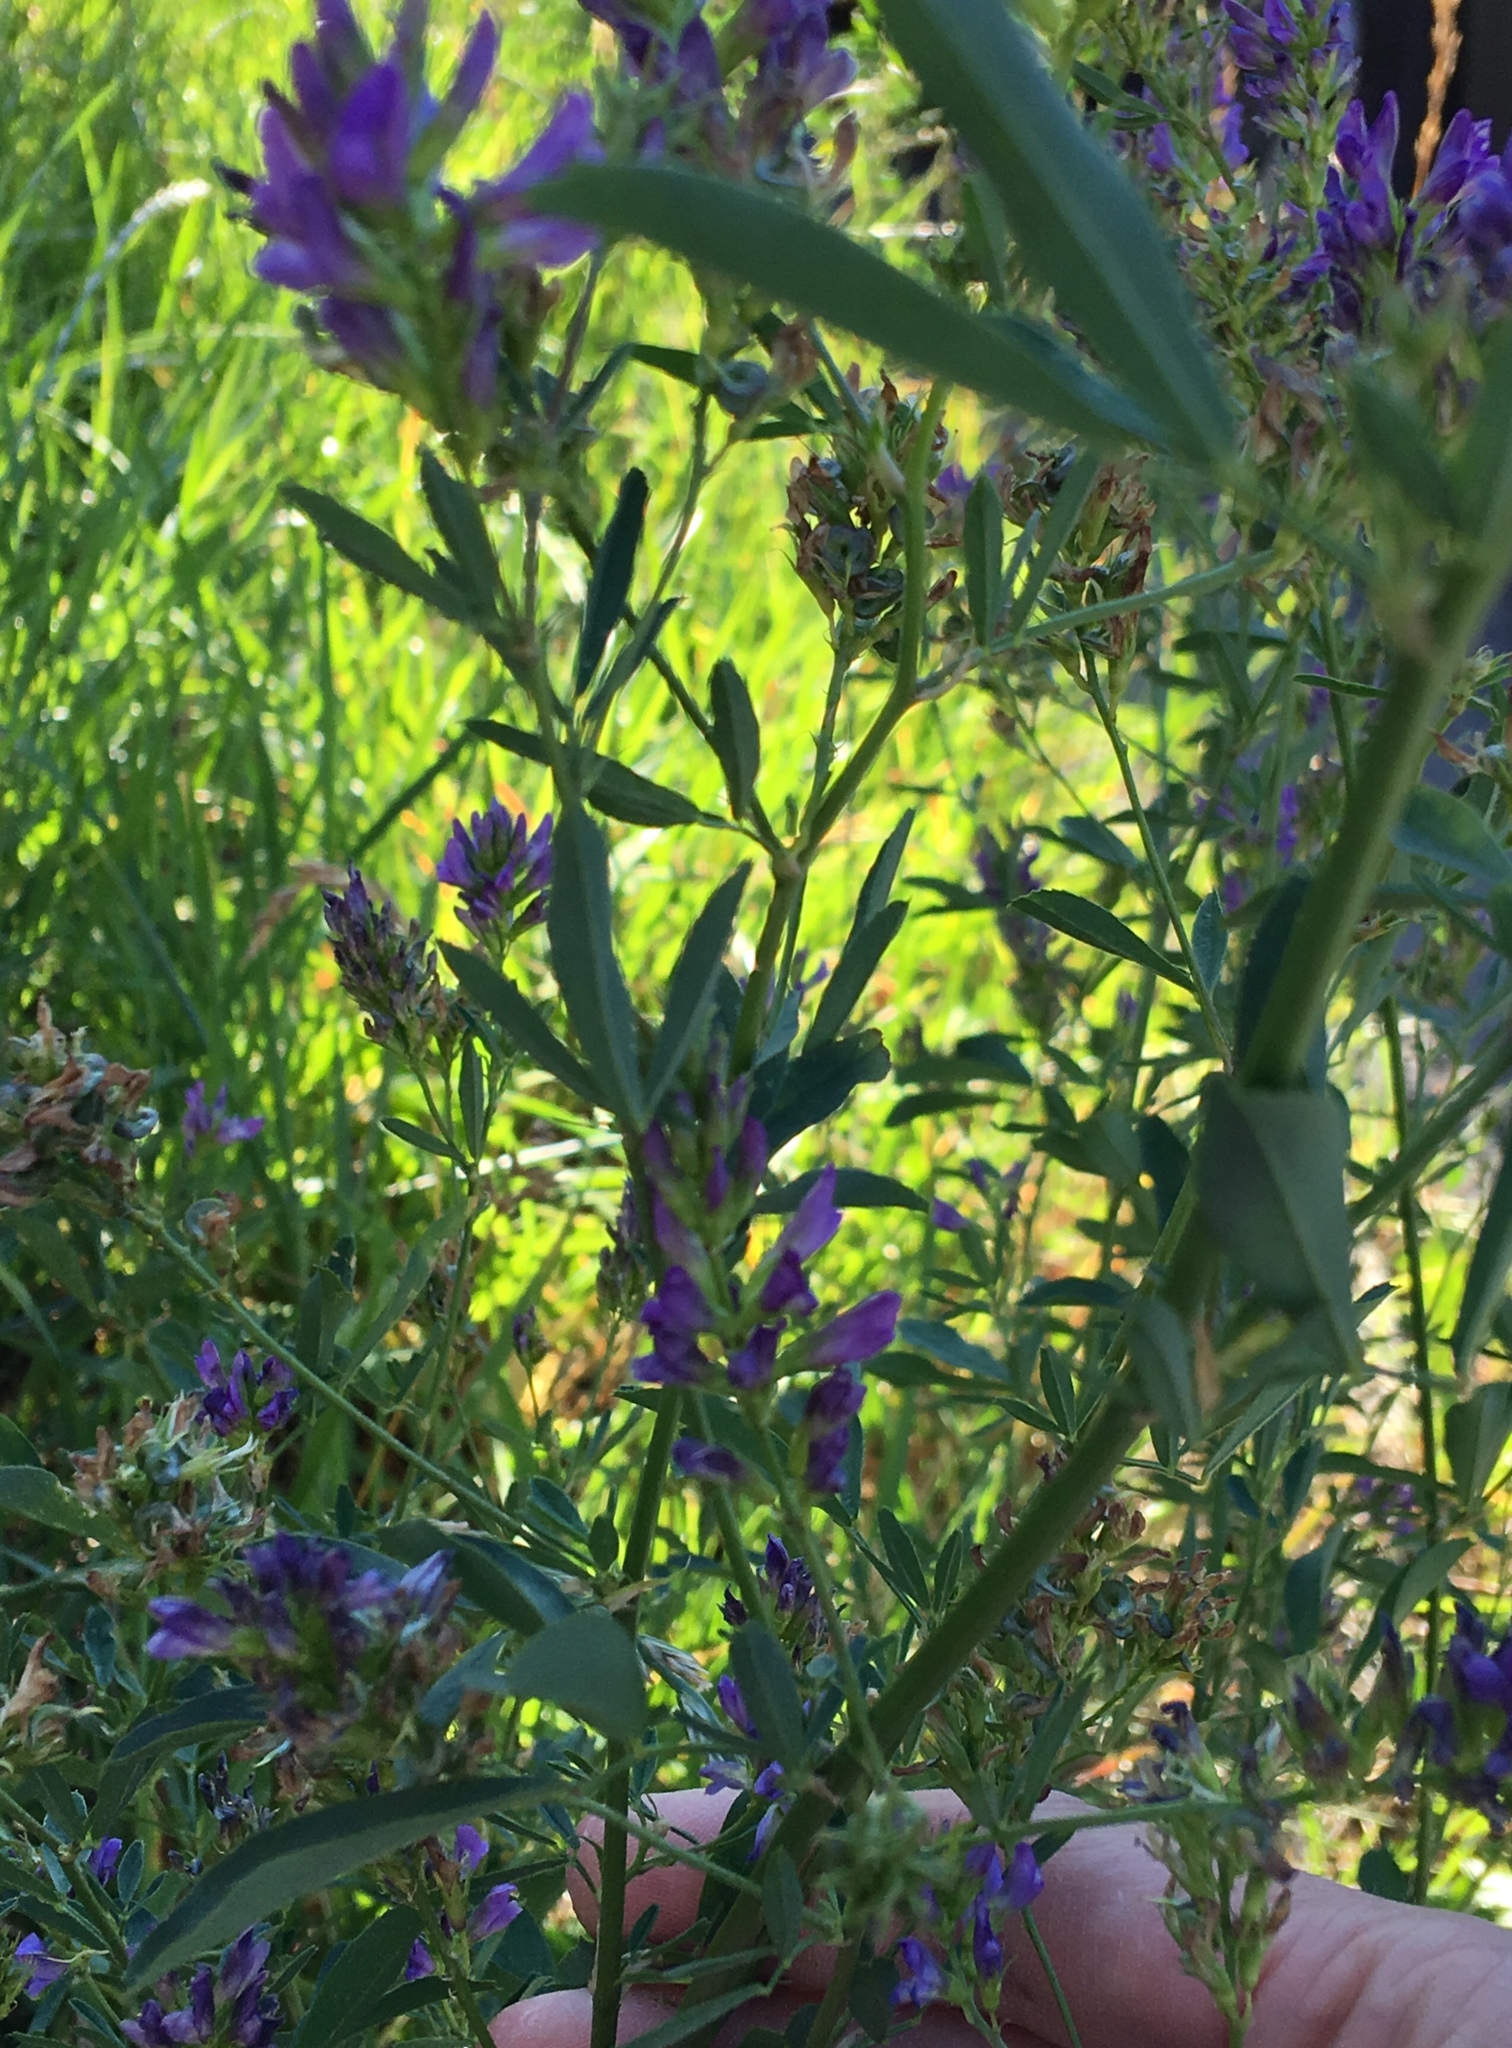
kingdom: Plantae
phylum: Tracheophyta
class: Magnoliopsida
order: Fabales
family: Fabaceae
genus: Medicago
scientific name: Medicago sativa
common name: Alfalfa
